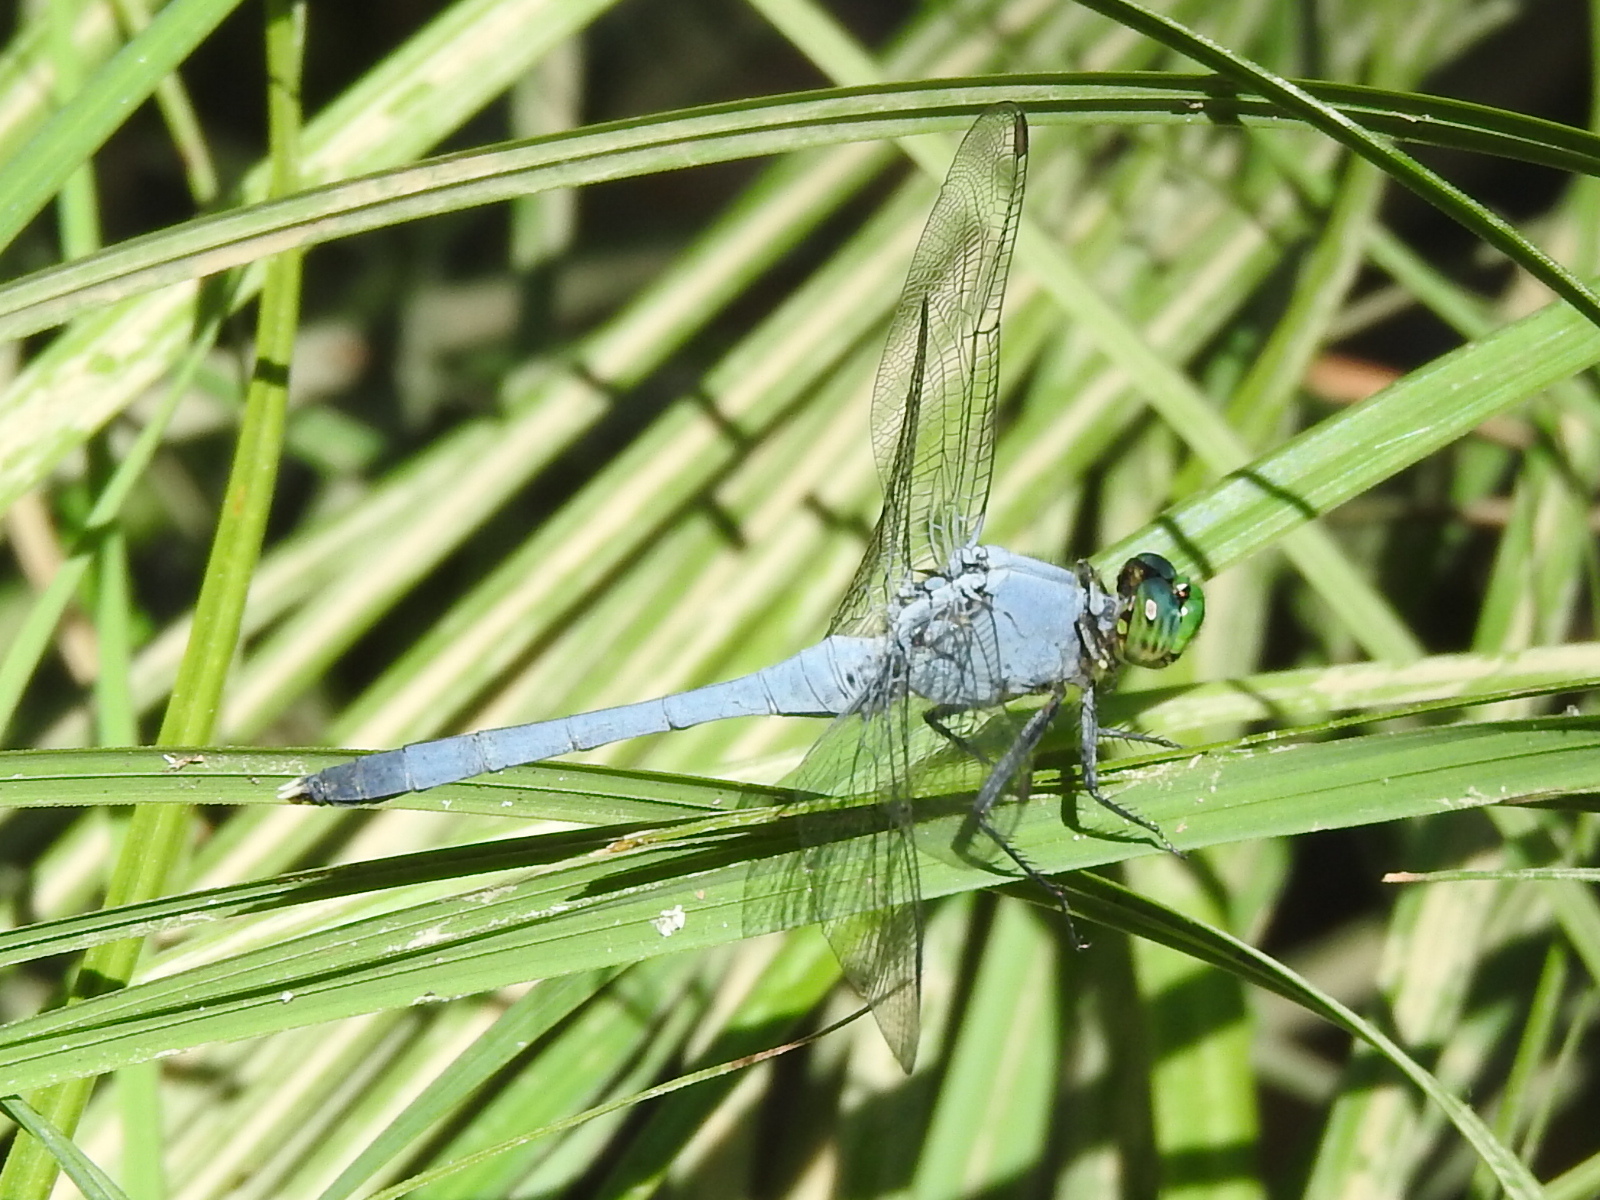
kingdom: Animalia
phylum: Arthropoda
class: Insecta
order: Odonata
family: Libellulidae
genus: Erythemis
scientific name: Erythemis simplicicollis
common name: Eastern pondhawk
